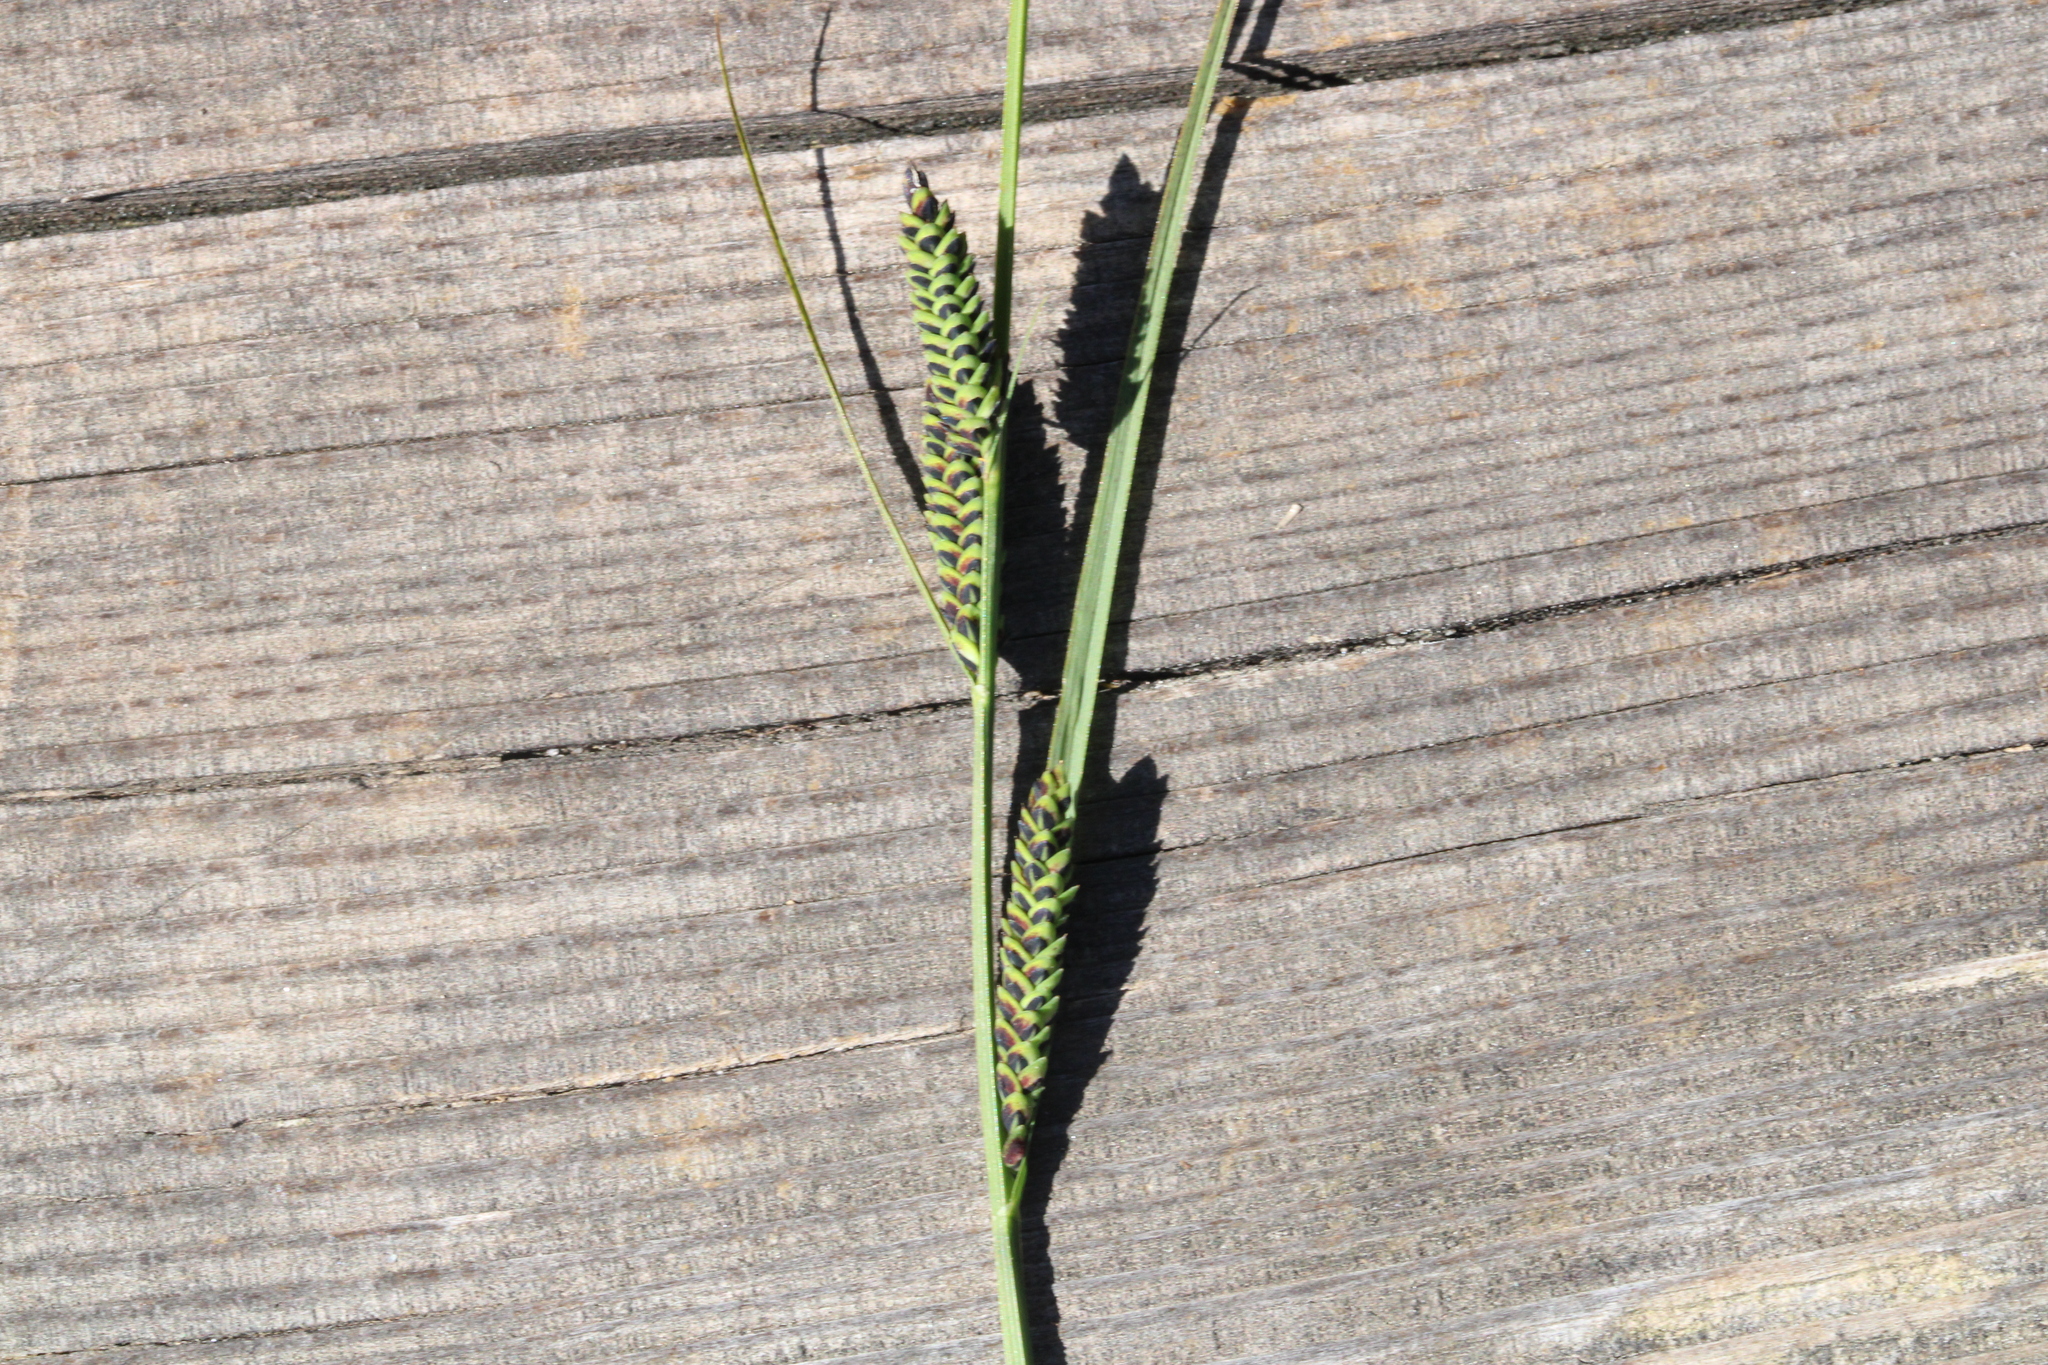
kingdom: Plantae
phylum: Tracheophyta
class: Liliopsida
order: Poales
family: Cyperaceae
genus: Carex
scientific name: Carex nigra
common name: Common sedge
